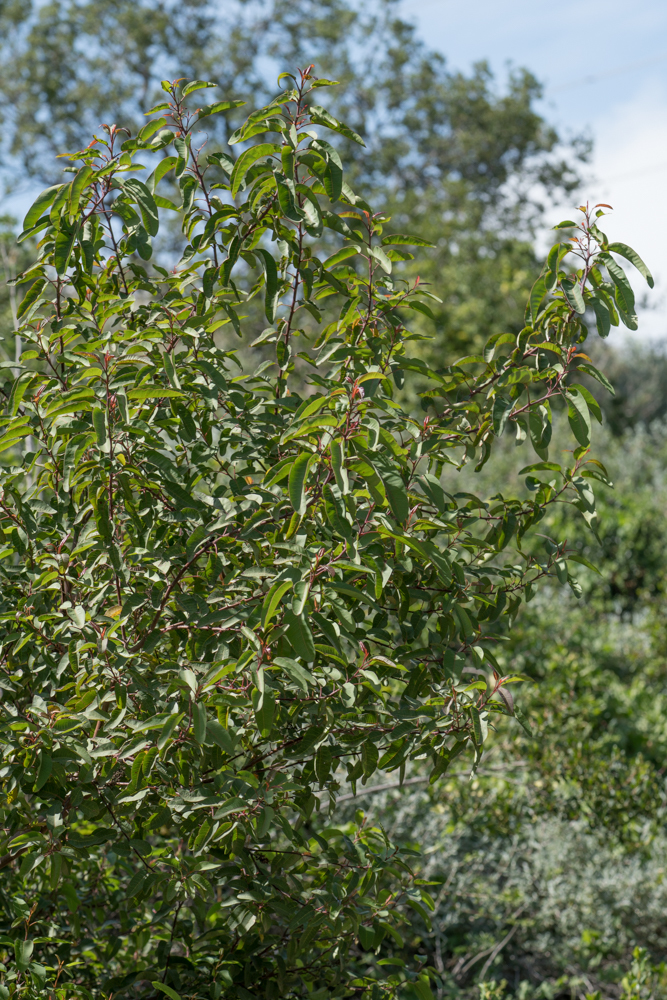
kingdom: Plantae
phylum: Tracheophyta
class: Magnoliopsida
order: Sapindales
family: Anacardiaceae
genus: Malosma
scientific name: Malosma laurina
